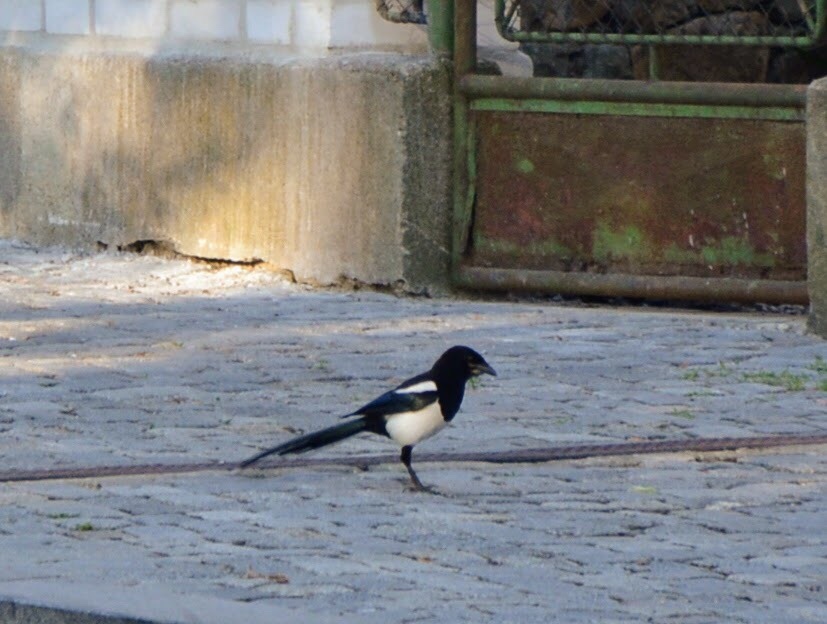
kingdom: Animalia
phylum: Chordata
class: Aves
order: Passeriformes
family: Corvidae
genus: Pica
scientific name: Pica pica
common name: Eurasian magpie
